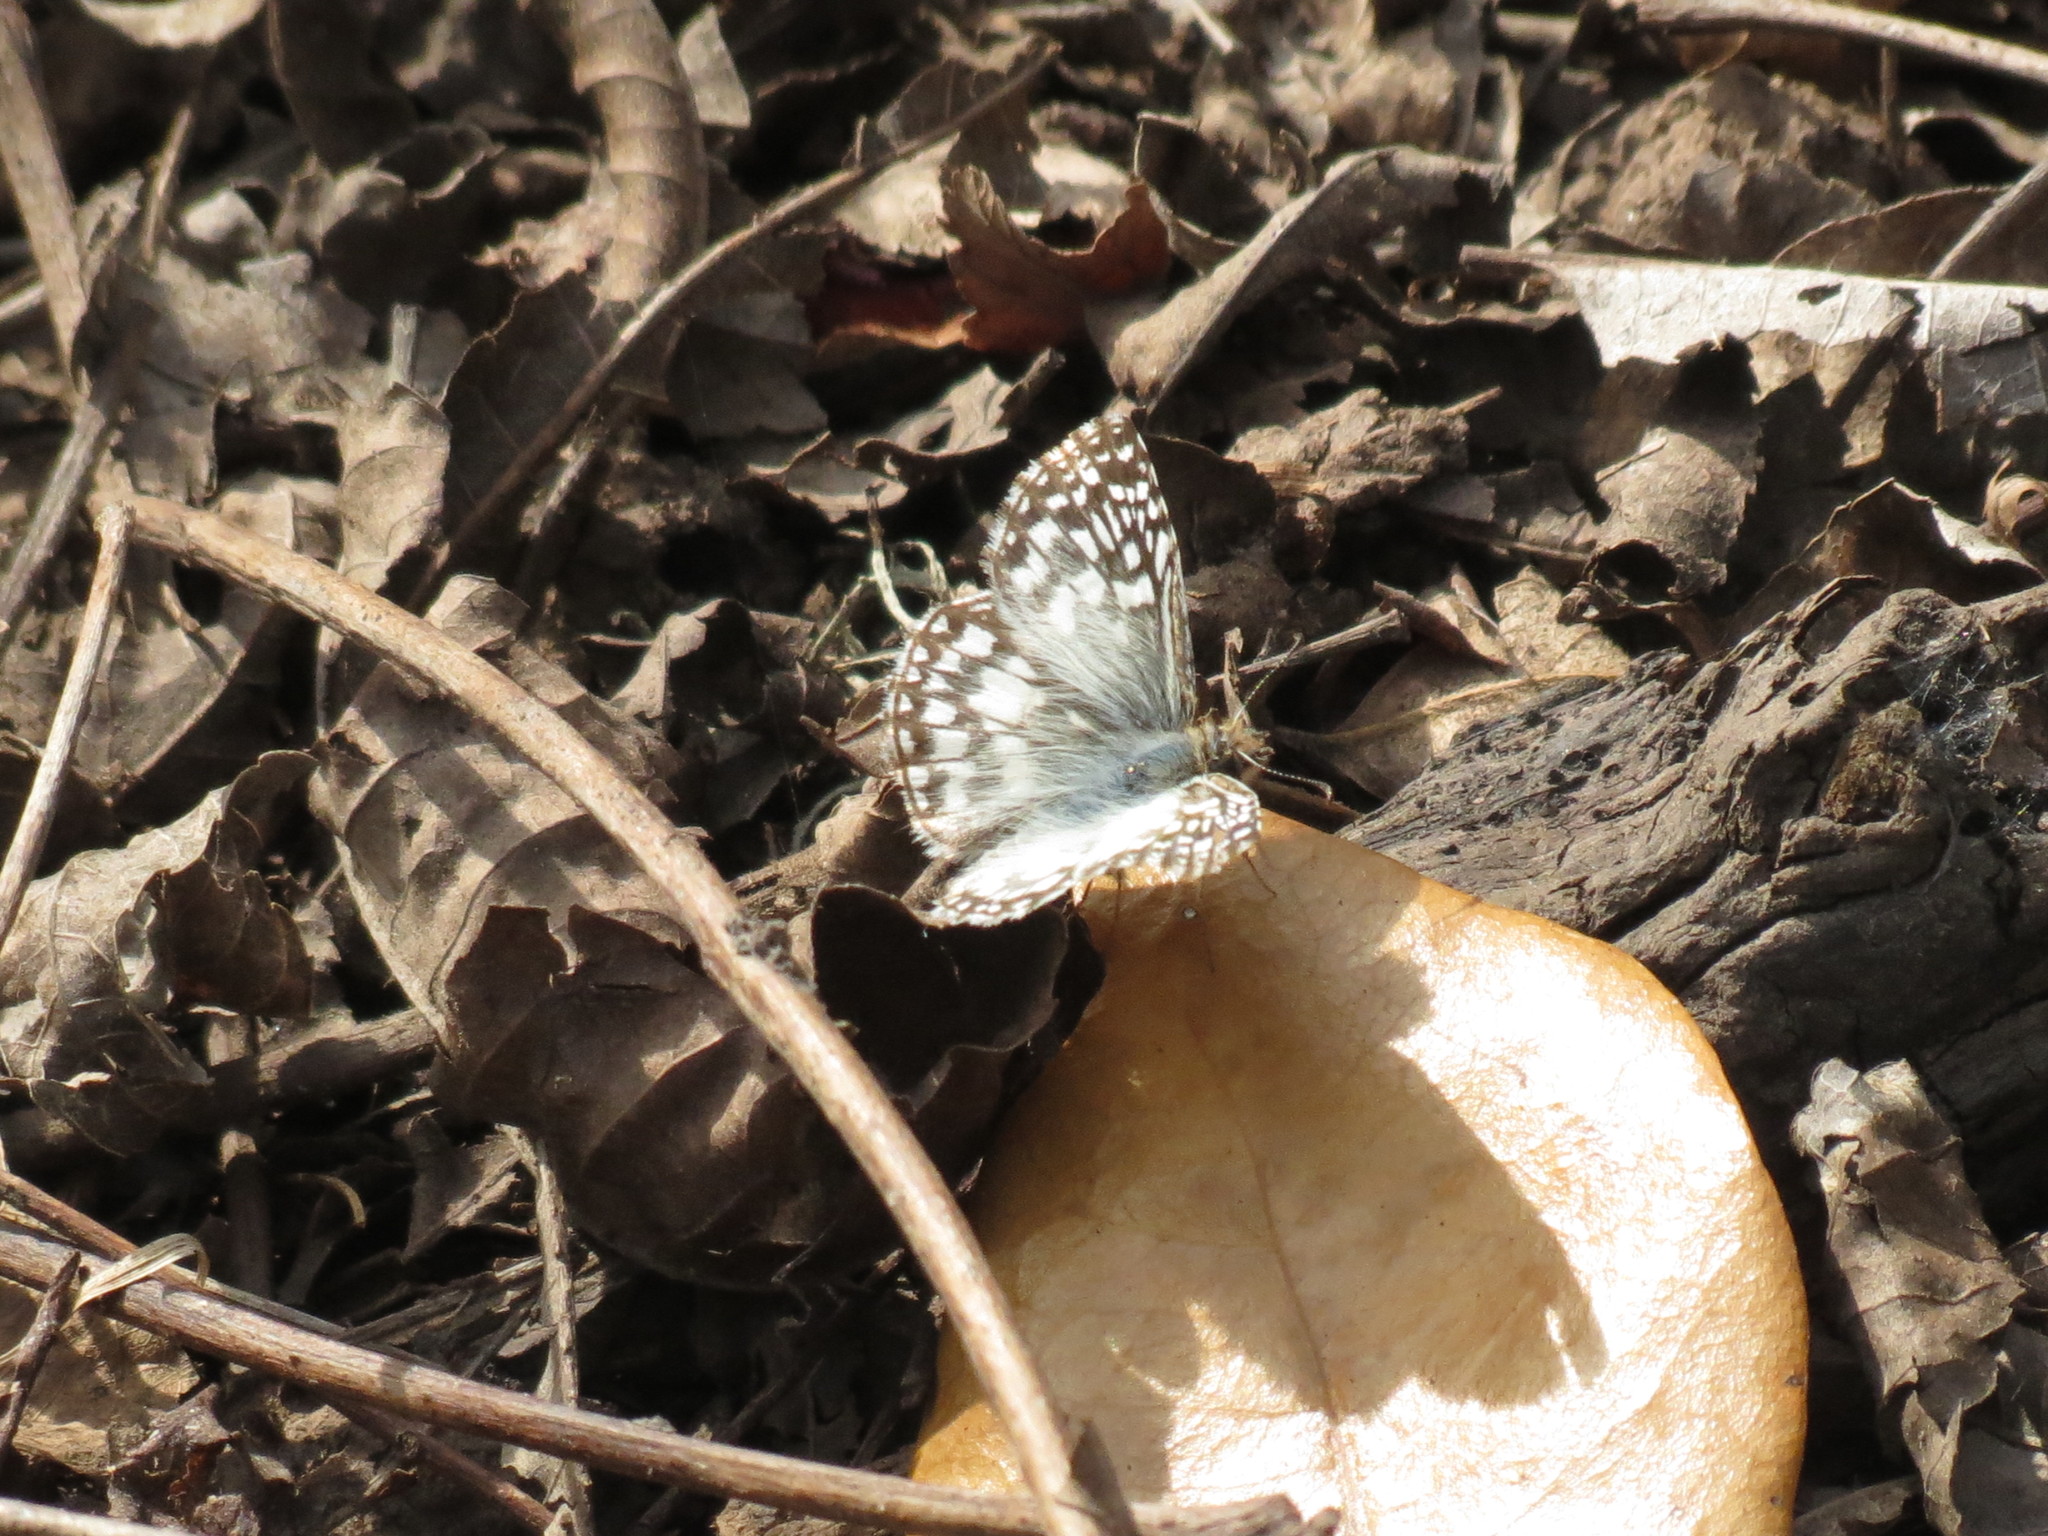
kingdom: Animalia
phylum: Arthropoda
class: Insecta
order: Lepidoptera
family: Hesperiidae
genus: Pyrgus
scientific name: Pyrgus oileus
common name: Tropical checkered-skipper
